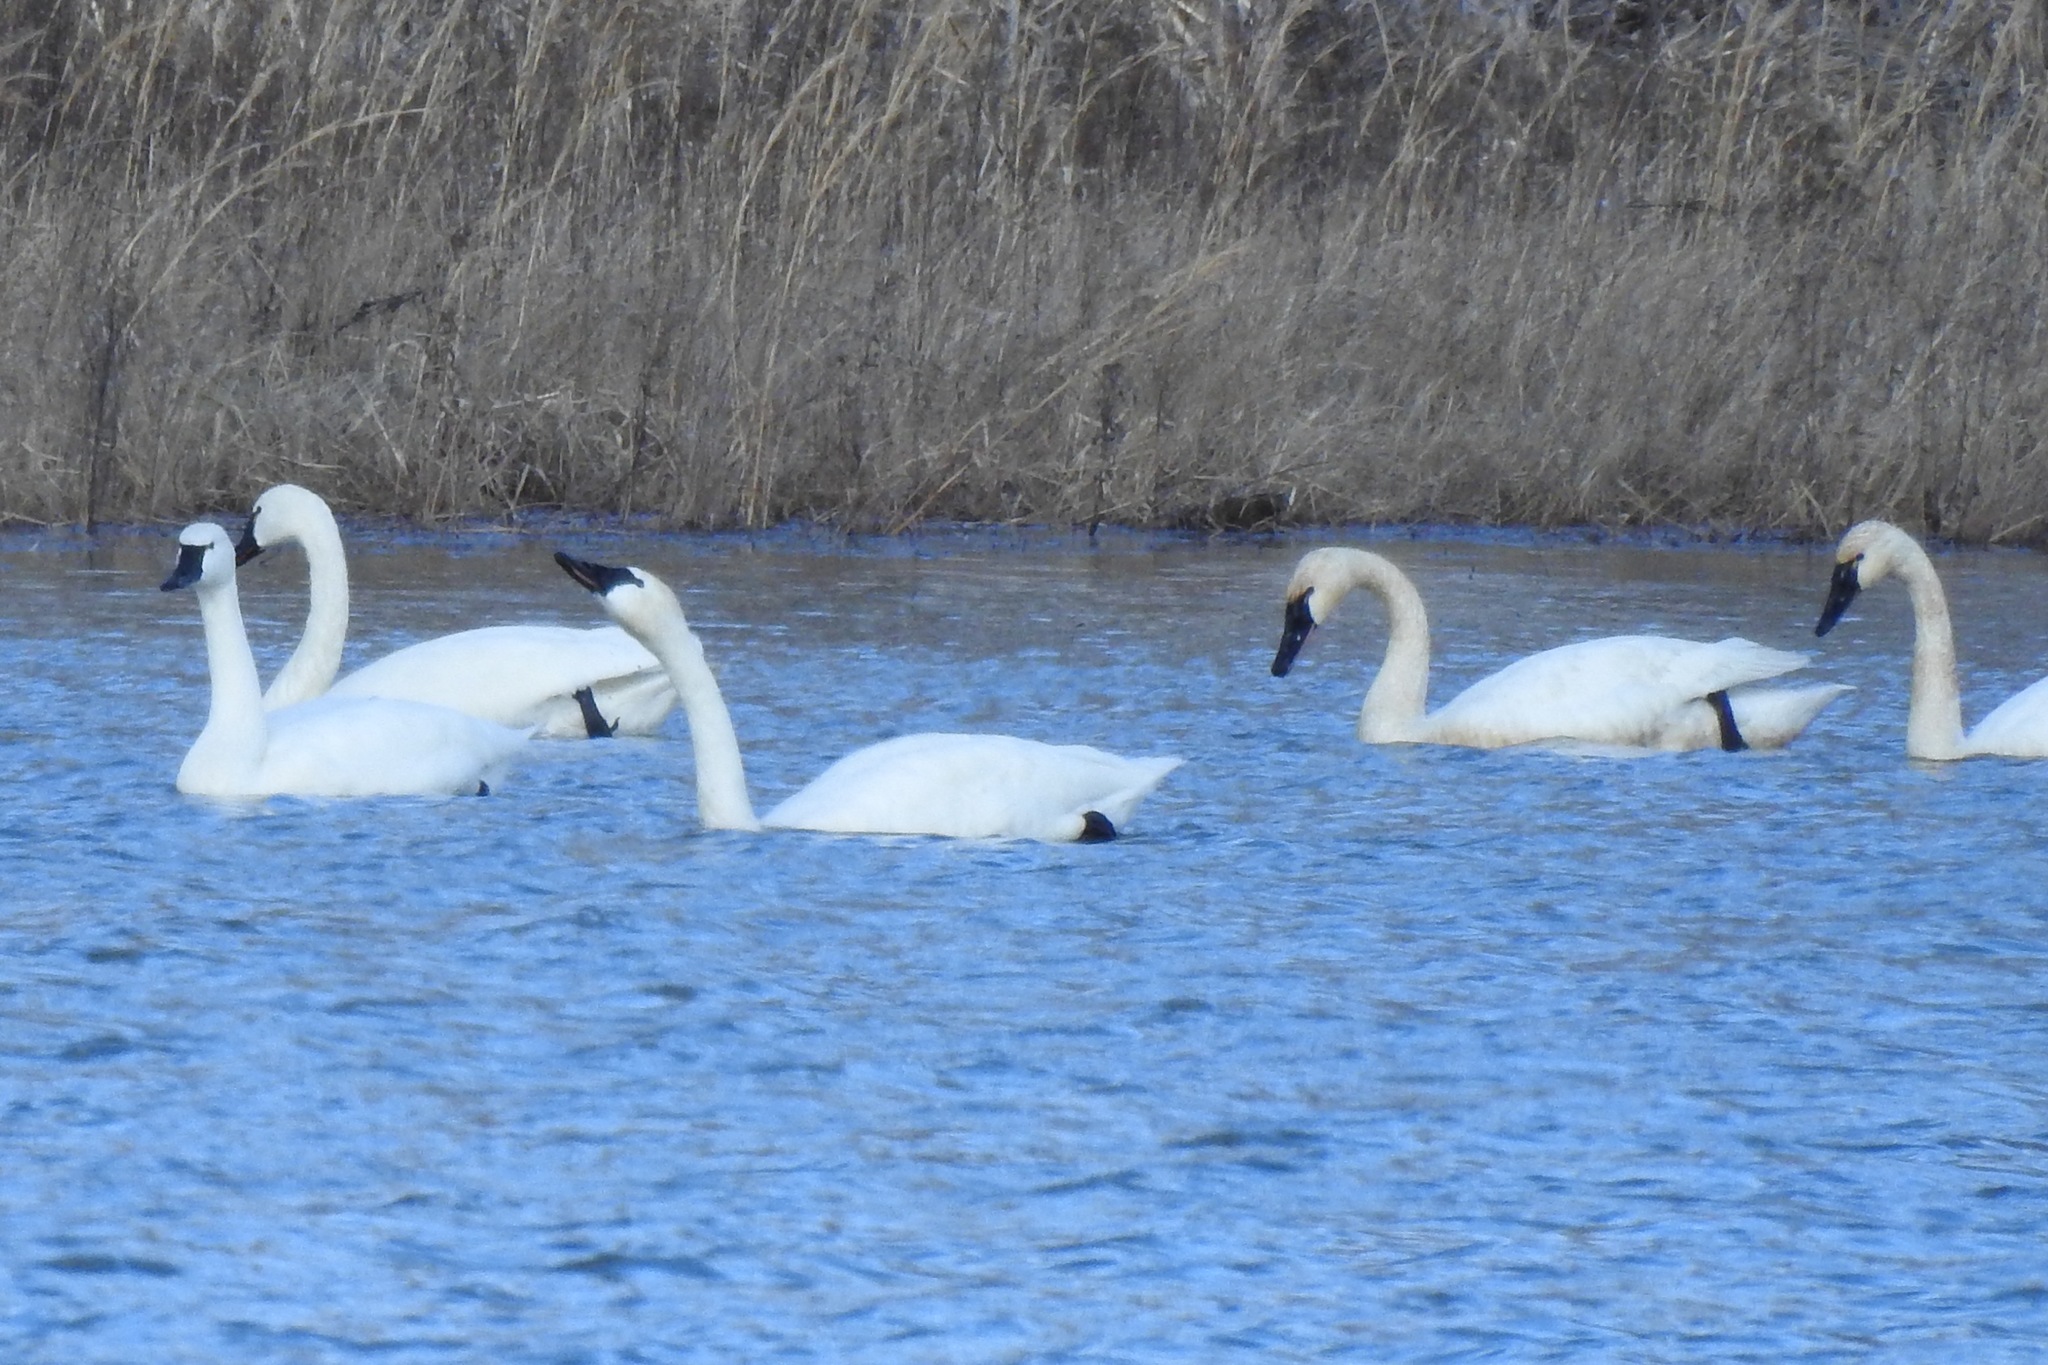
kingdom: Animalia
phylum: Chordata
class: Aves
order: Anseriformes
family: Anatidae
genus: Cygnus
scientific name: Cygnus columbianus
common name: Tundra swan
